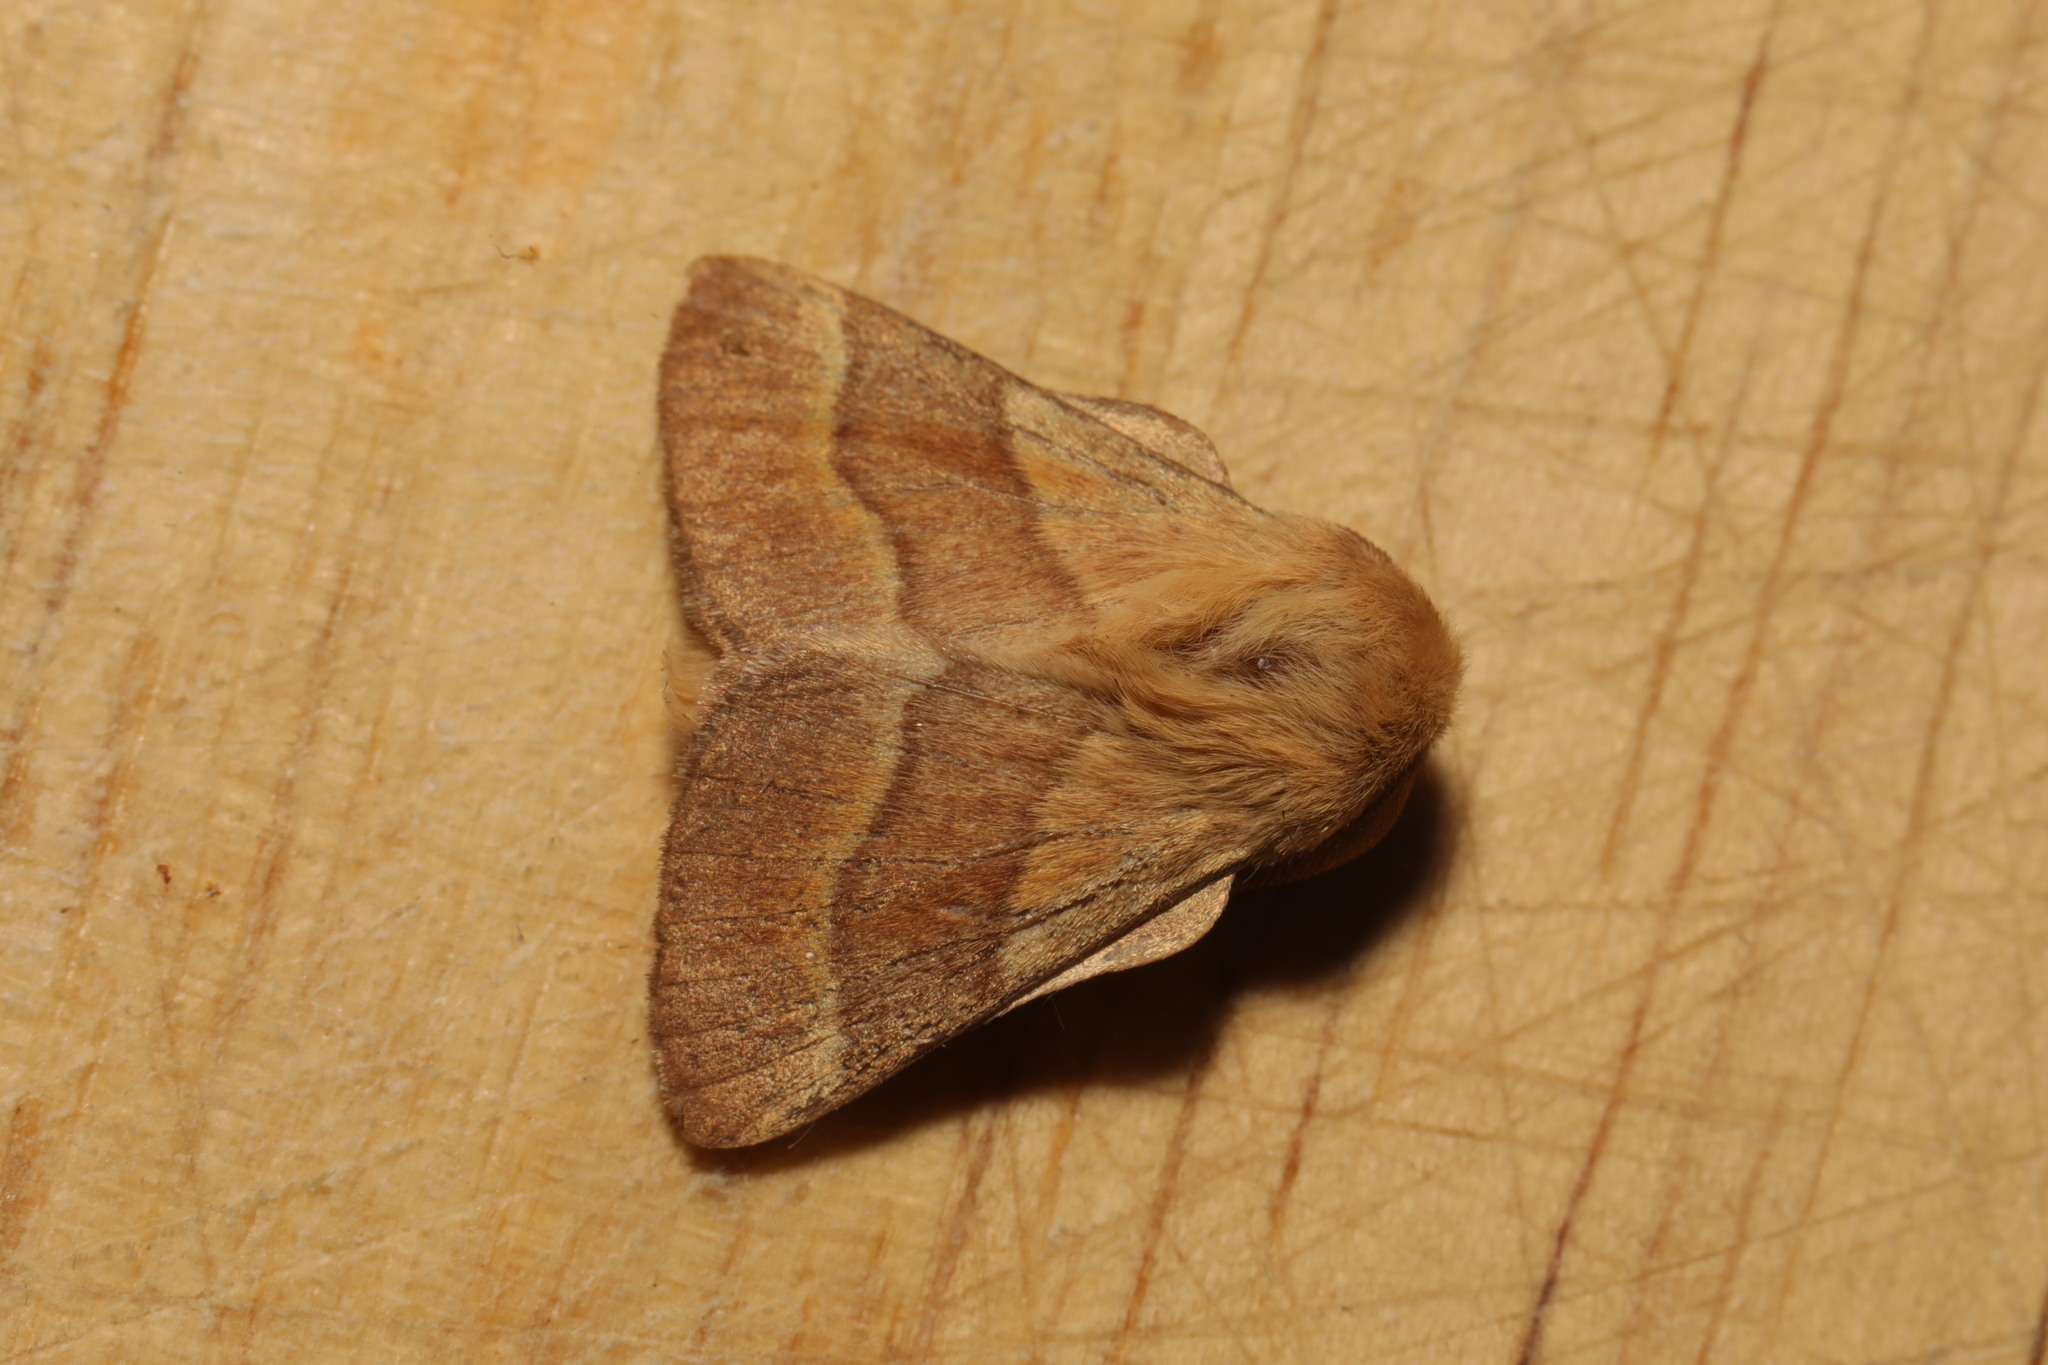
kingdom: Animalia
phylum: Arthropoda
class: Insecta
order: Lepidoptera
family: Lasiocampidae
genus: Malacosoma
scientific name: Malacosoma neustria
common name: The lackey
